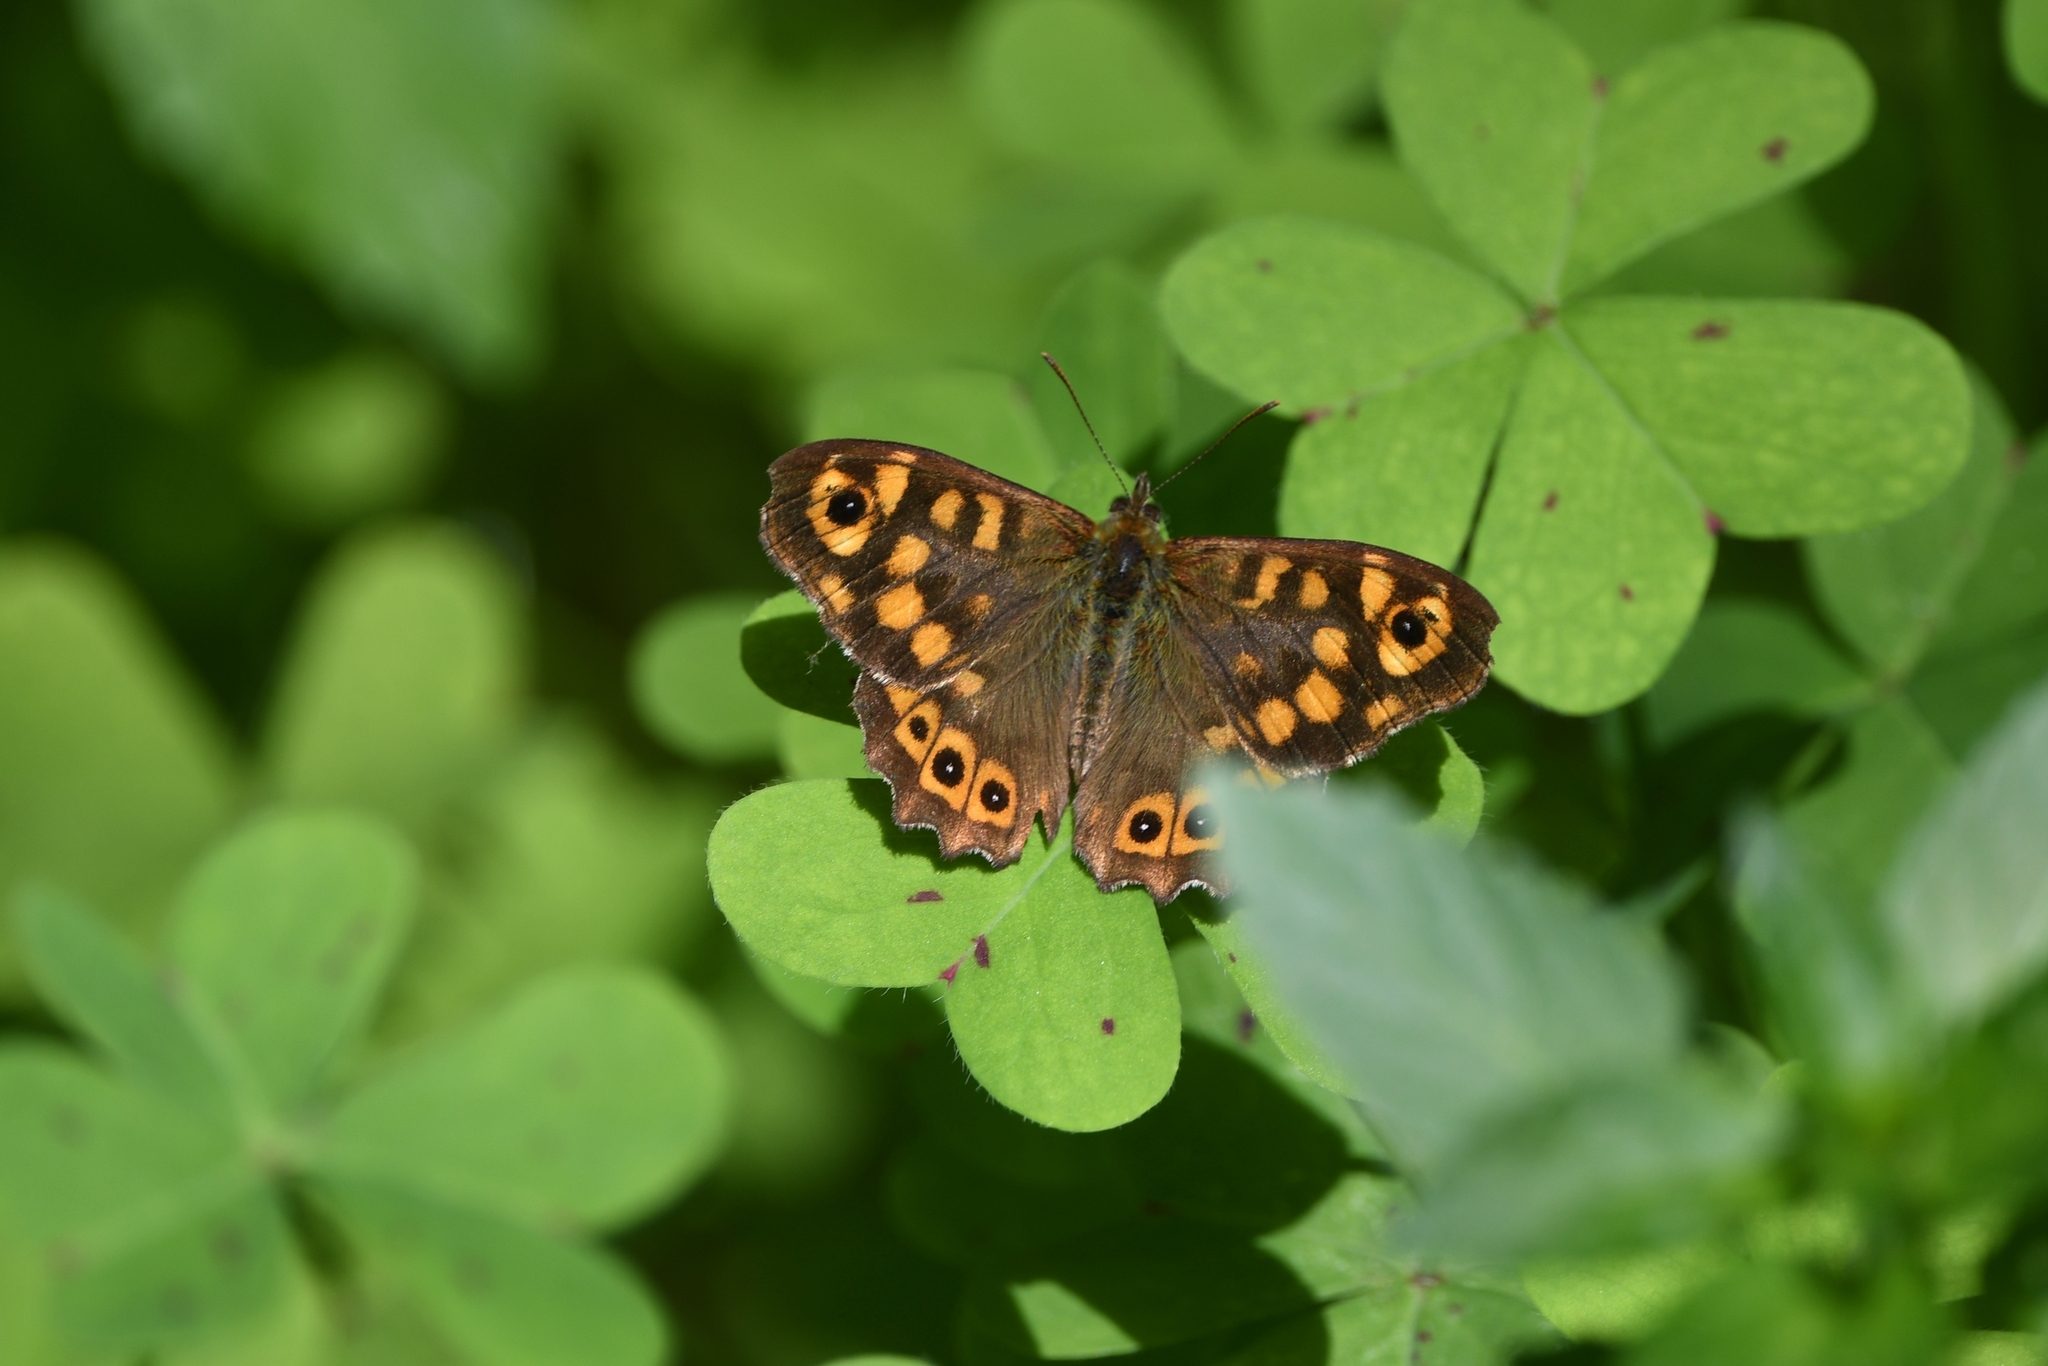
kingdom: Animalia
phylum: Arthropoda
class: Insecta
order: Lepidoptera
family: Nymphalidae
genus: Pararge
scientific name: Pararge aegeria
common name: Speckled wood
